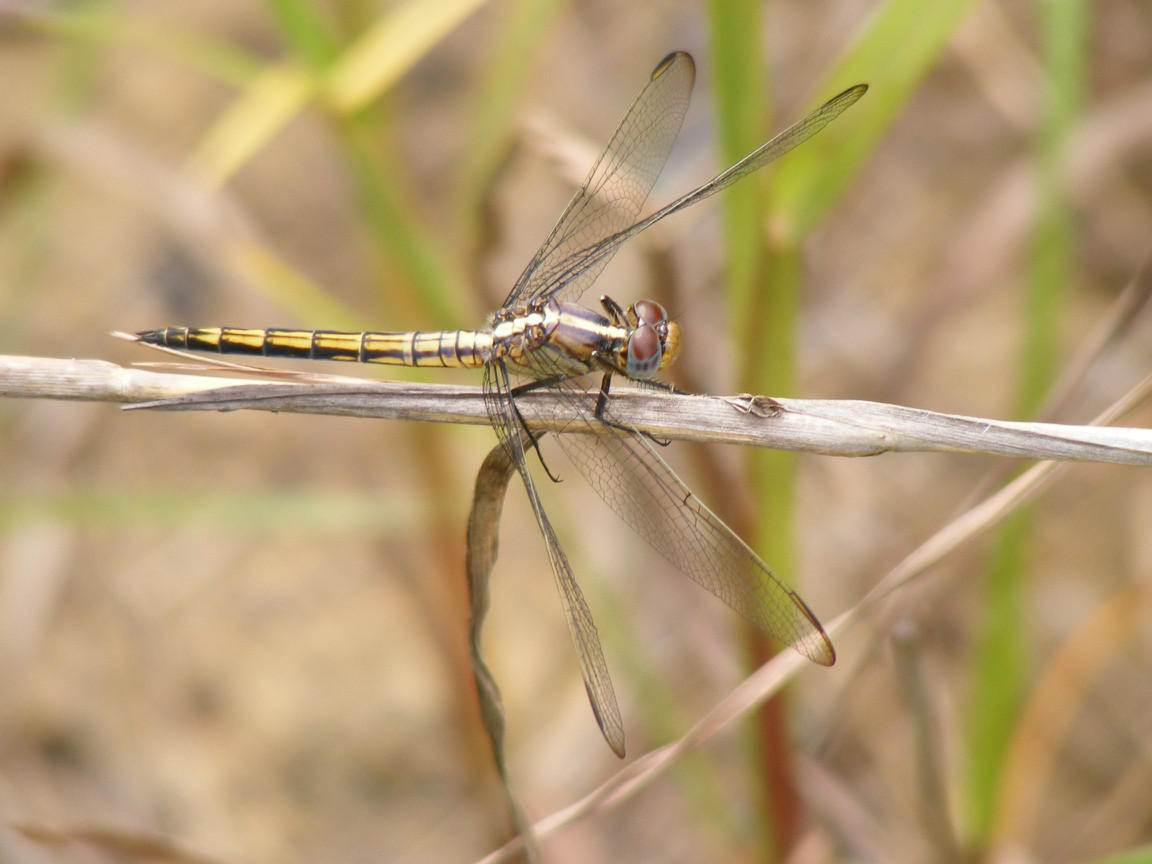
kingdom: Animalia
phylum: Arthropoda
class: Insecta
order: Odonata
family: Libellulidae
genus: Nesciothemis
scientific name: Nesciothemis farinosa
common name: Eastern blacktail
